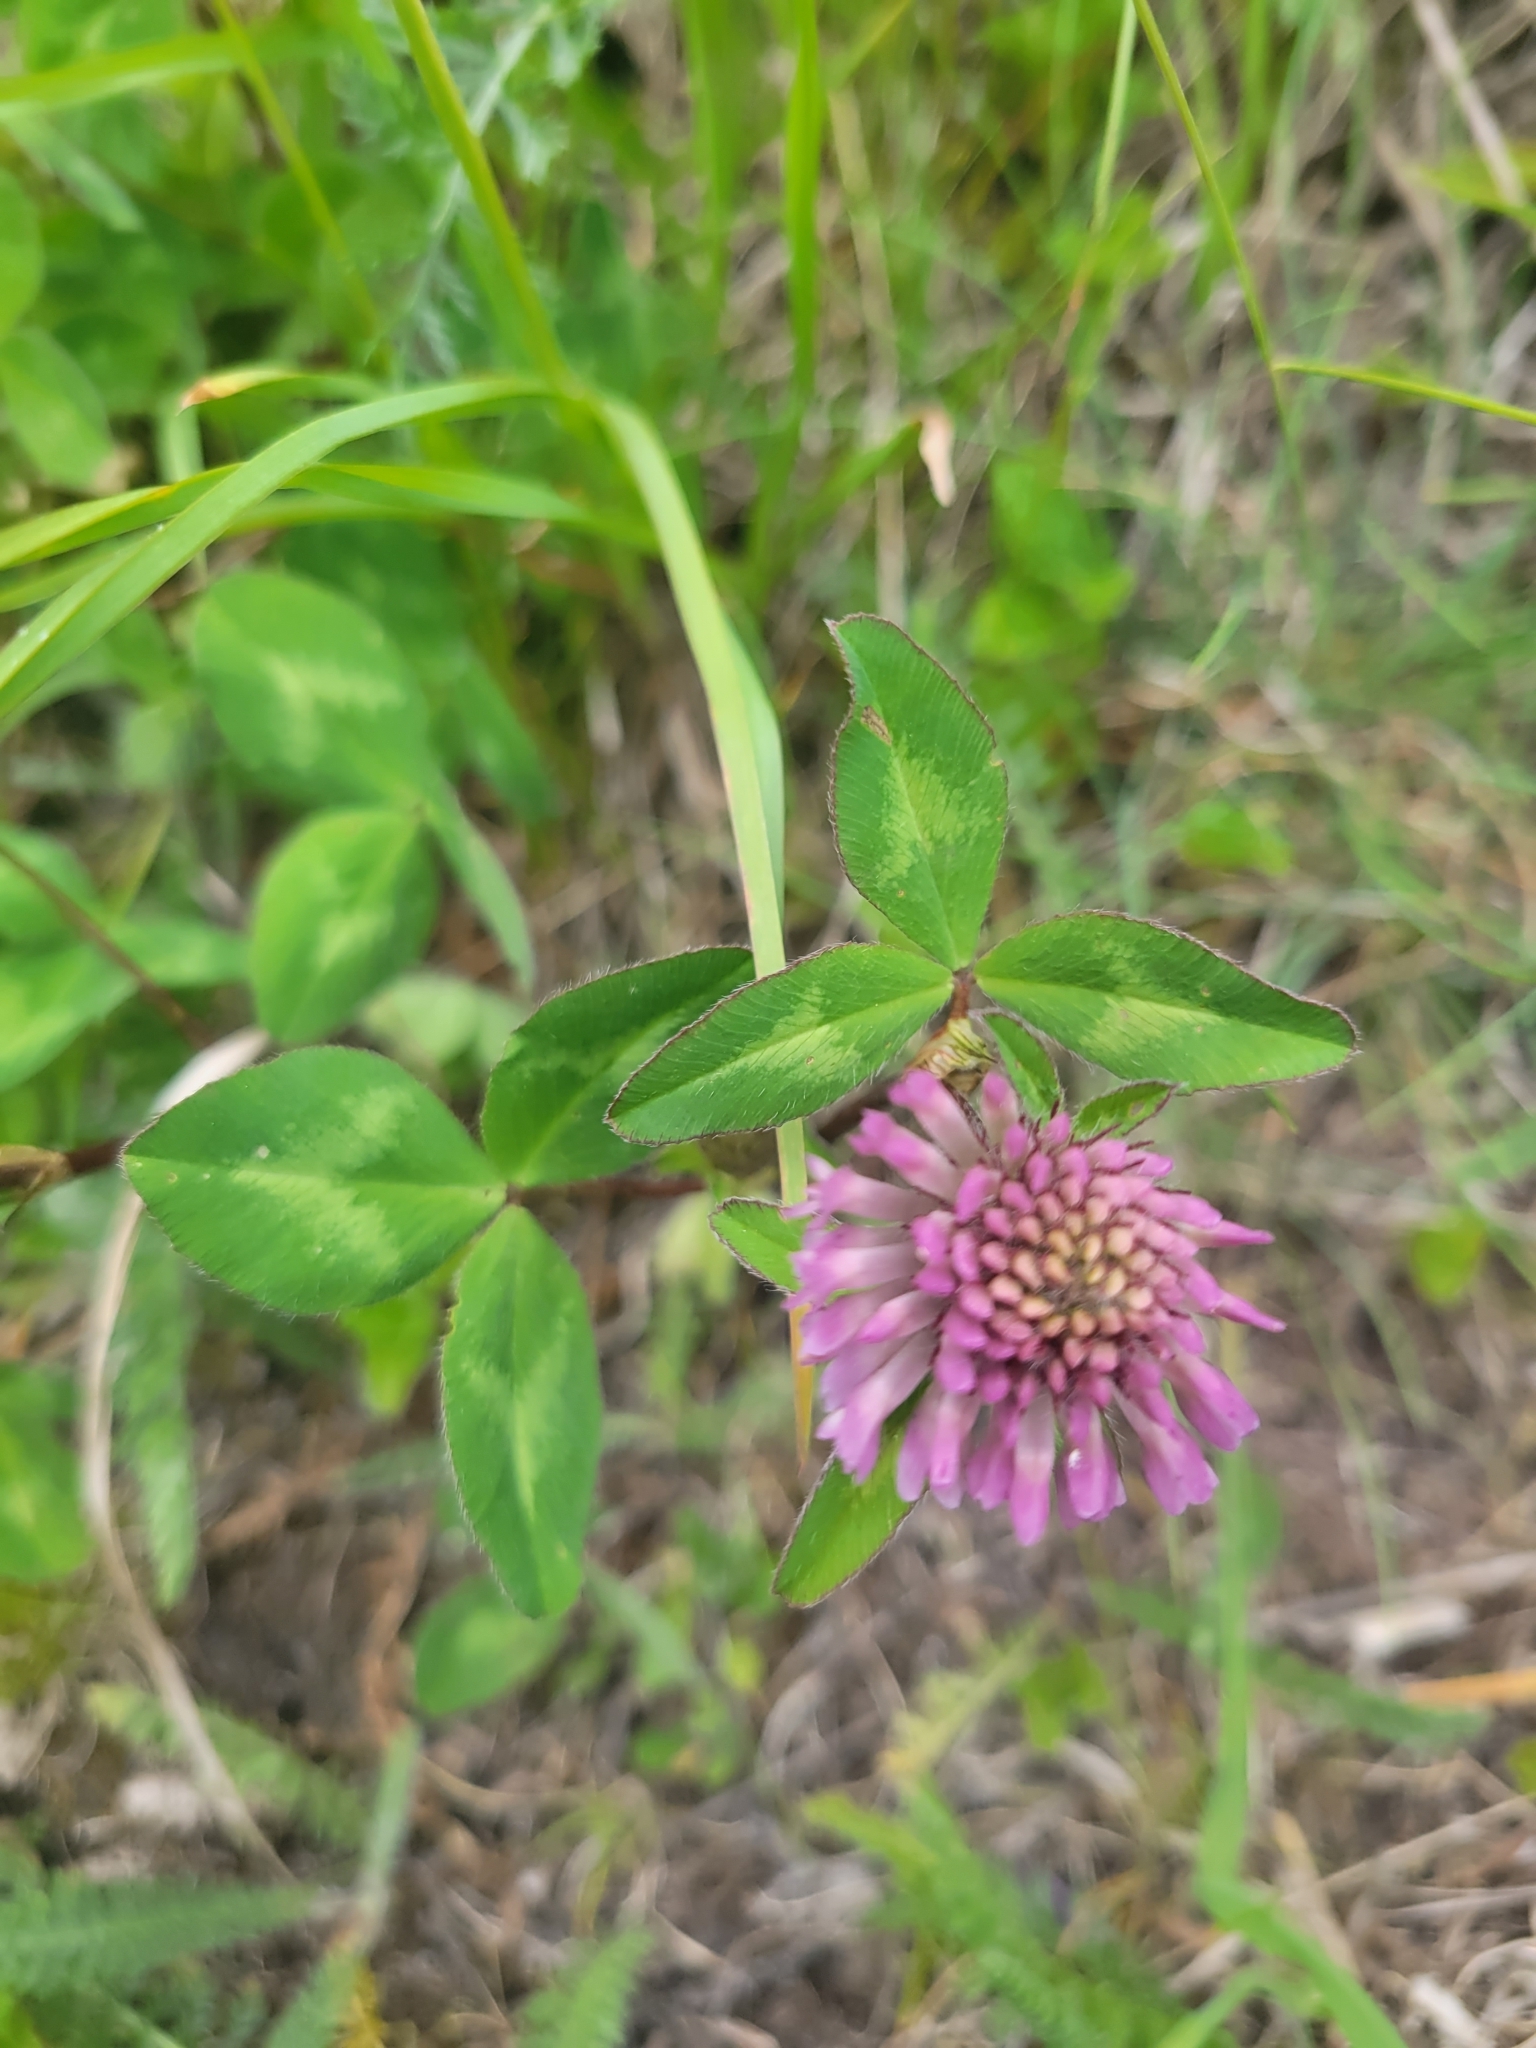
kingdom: Plantae
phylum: Tracheophyta
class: Magnoliopsida
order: Fabales
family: Fabaceae
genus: Trifolium
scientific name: Trifolium pratense
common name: Red clover
